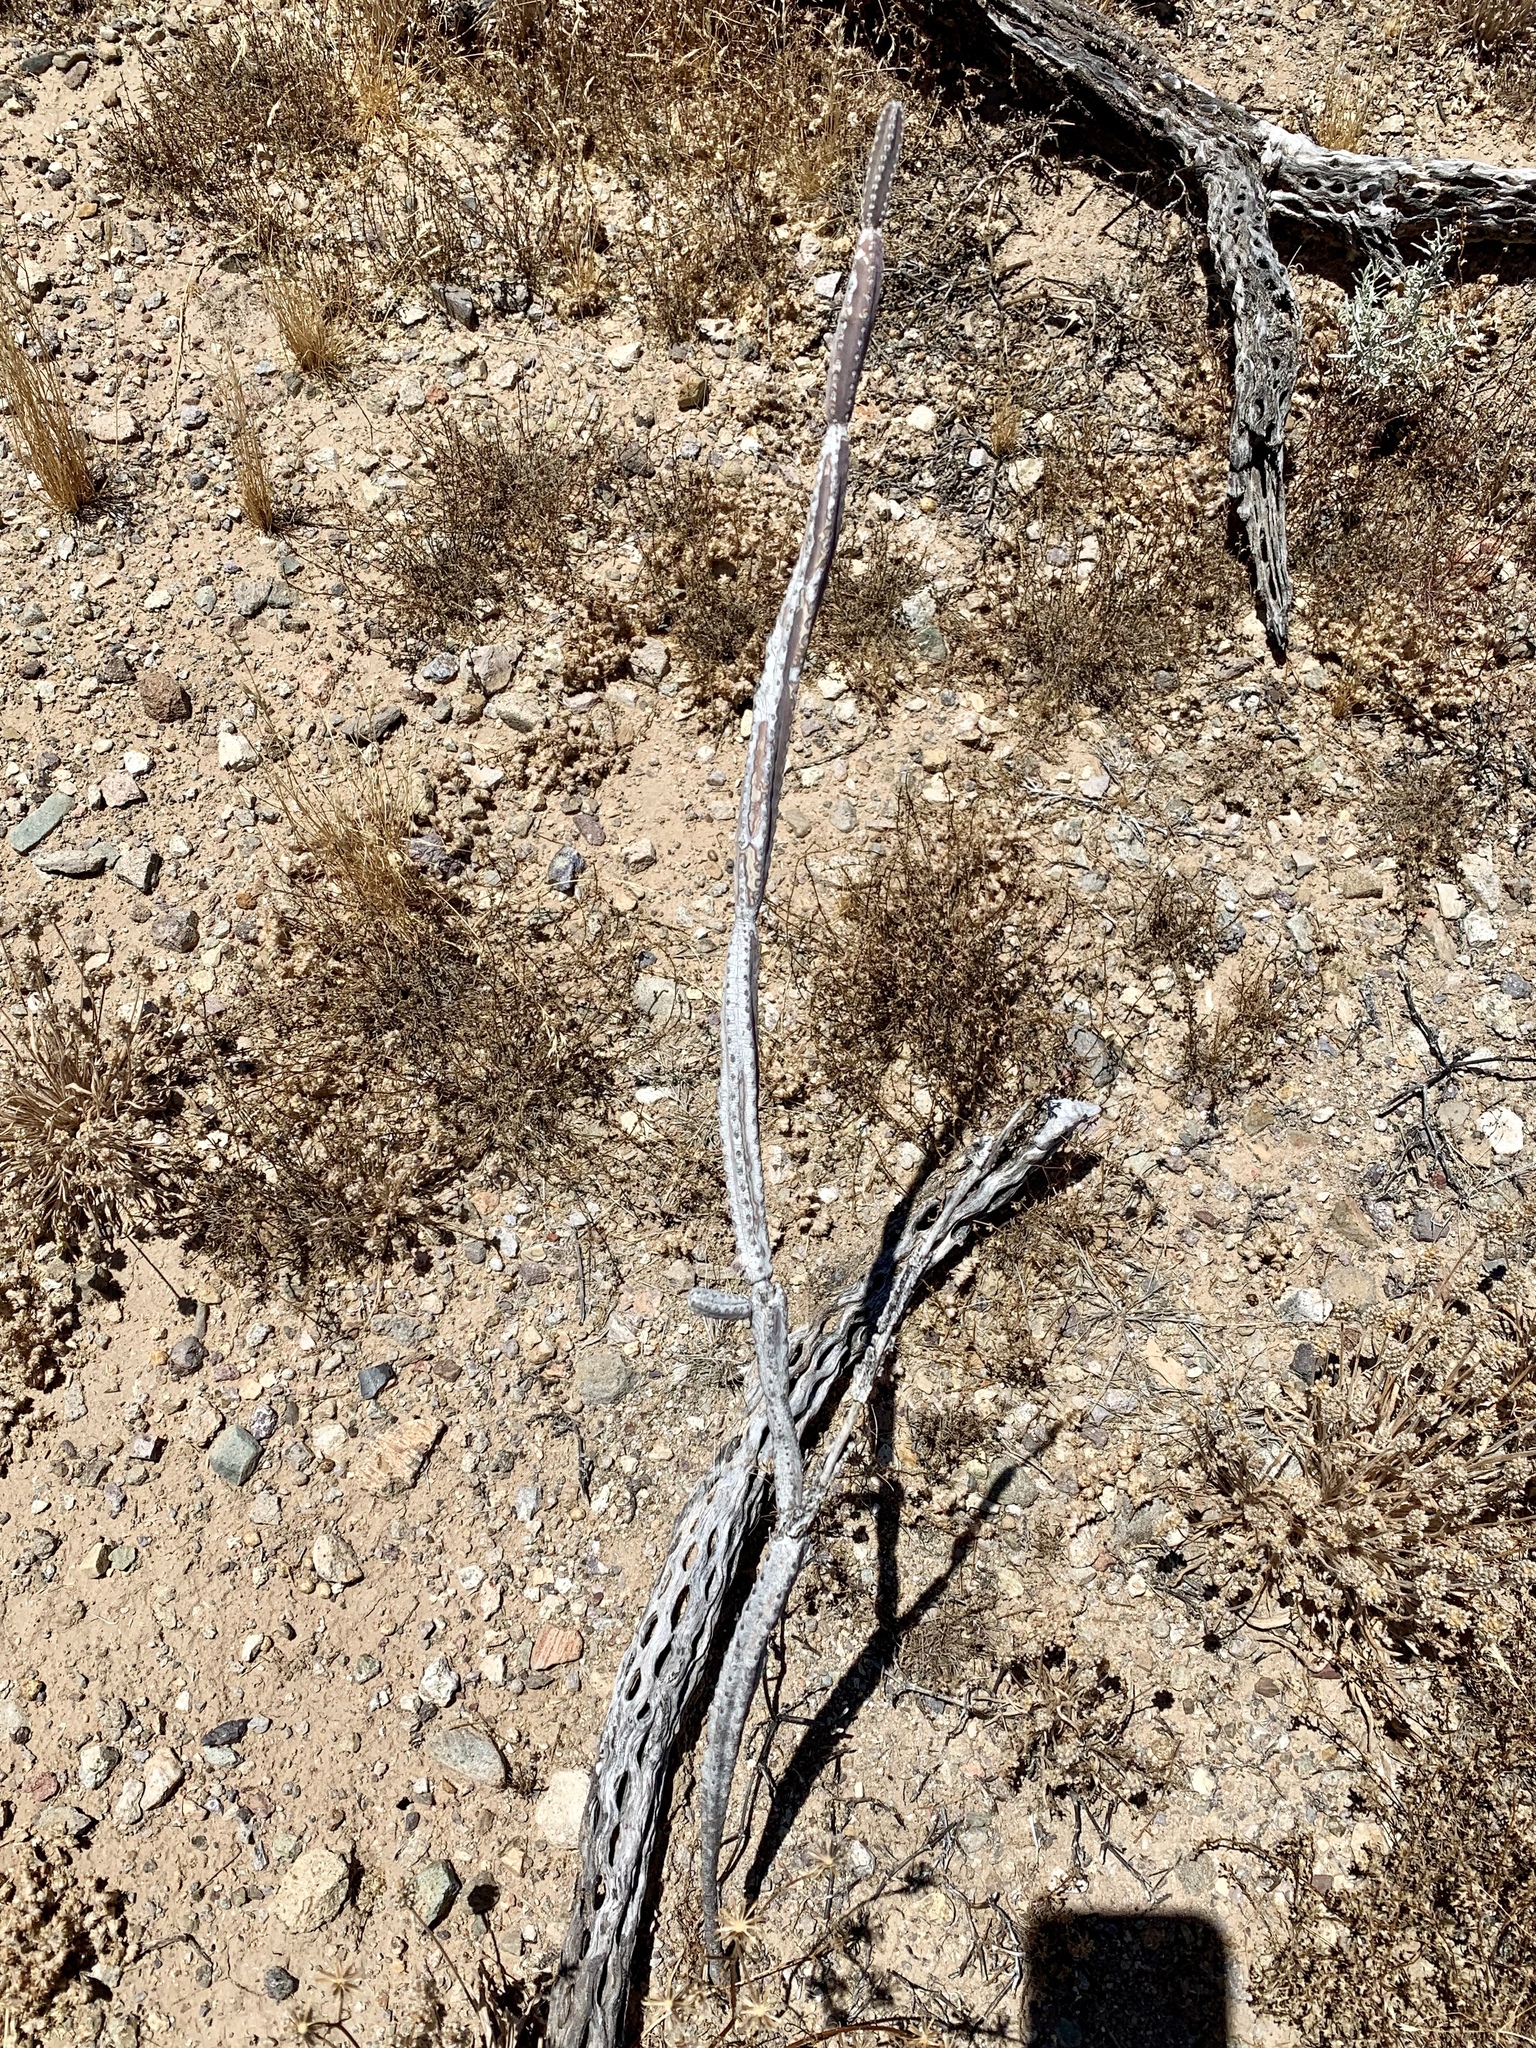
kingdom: Plantae
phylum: Tracheophyta
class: Magnoliopsida
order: Caryophyllales
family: Cactaceae
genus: Peniocereus
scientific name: Peniocereus greggii
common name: Desert night-blooming cereus
